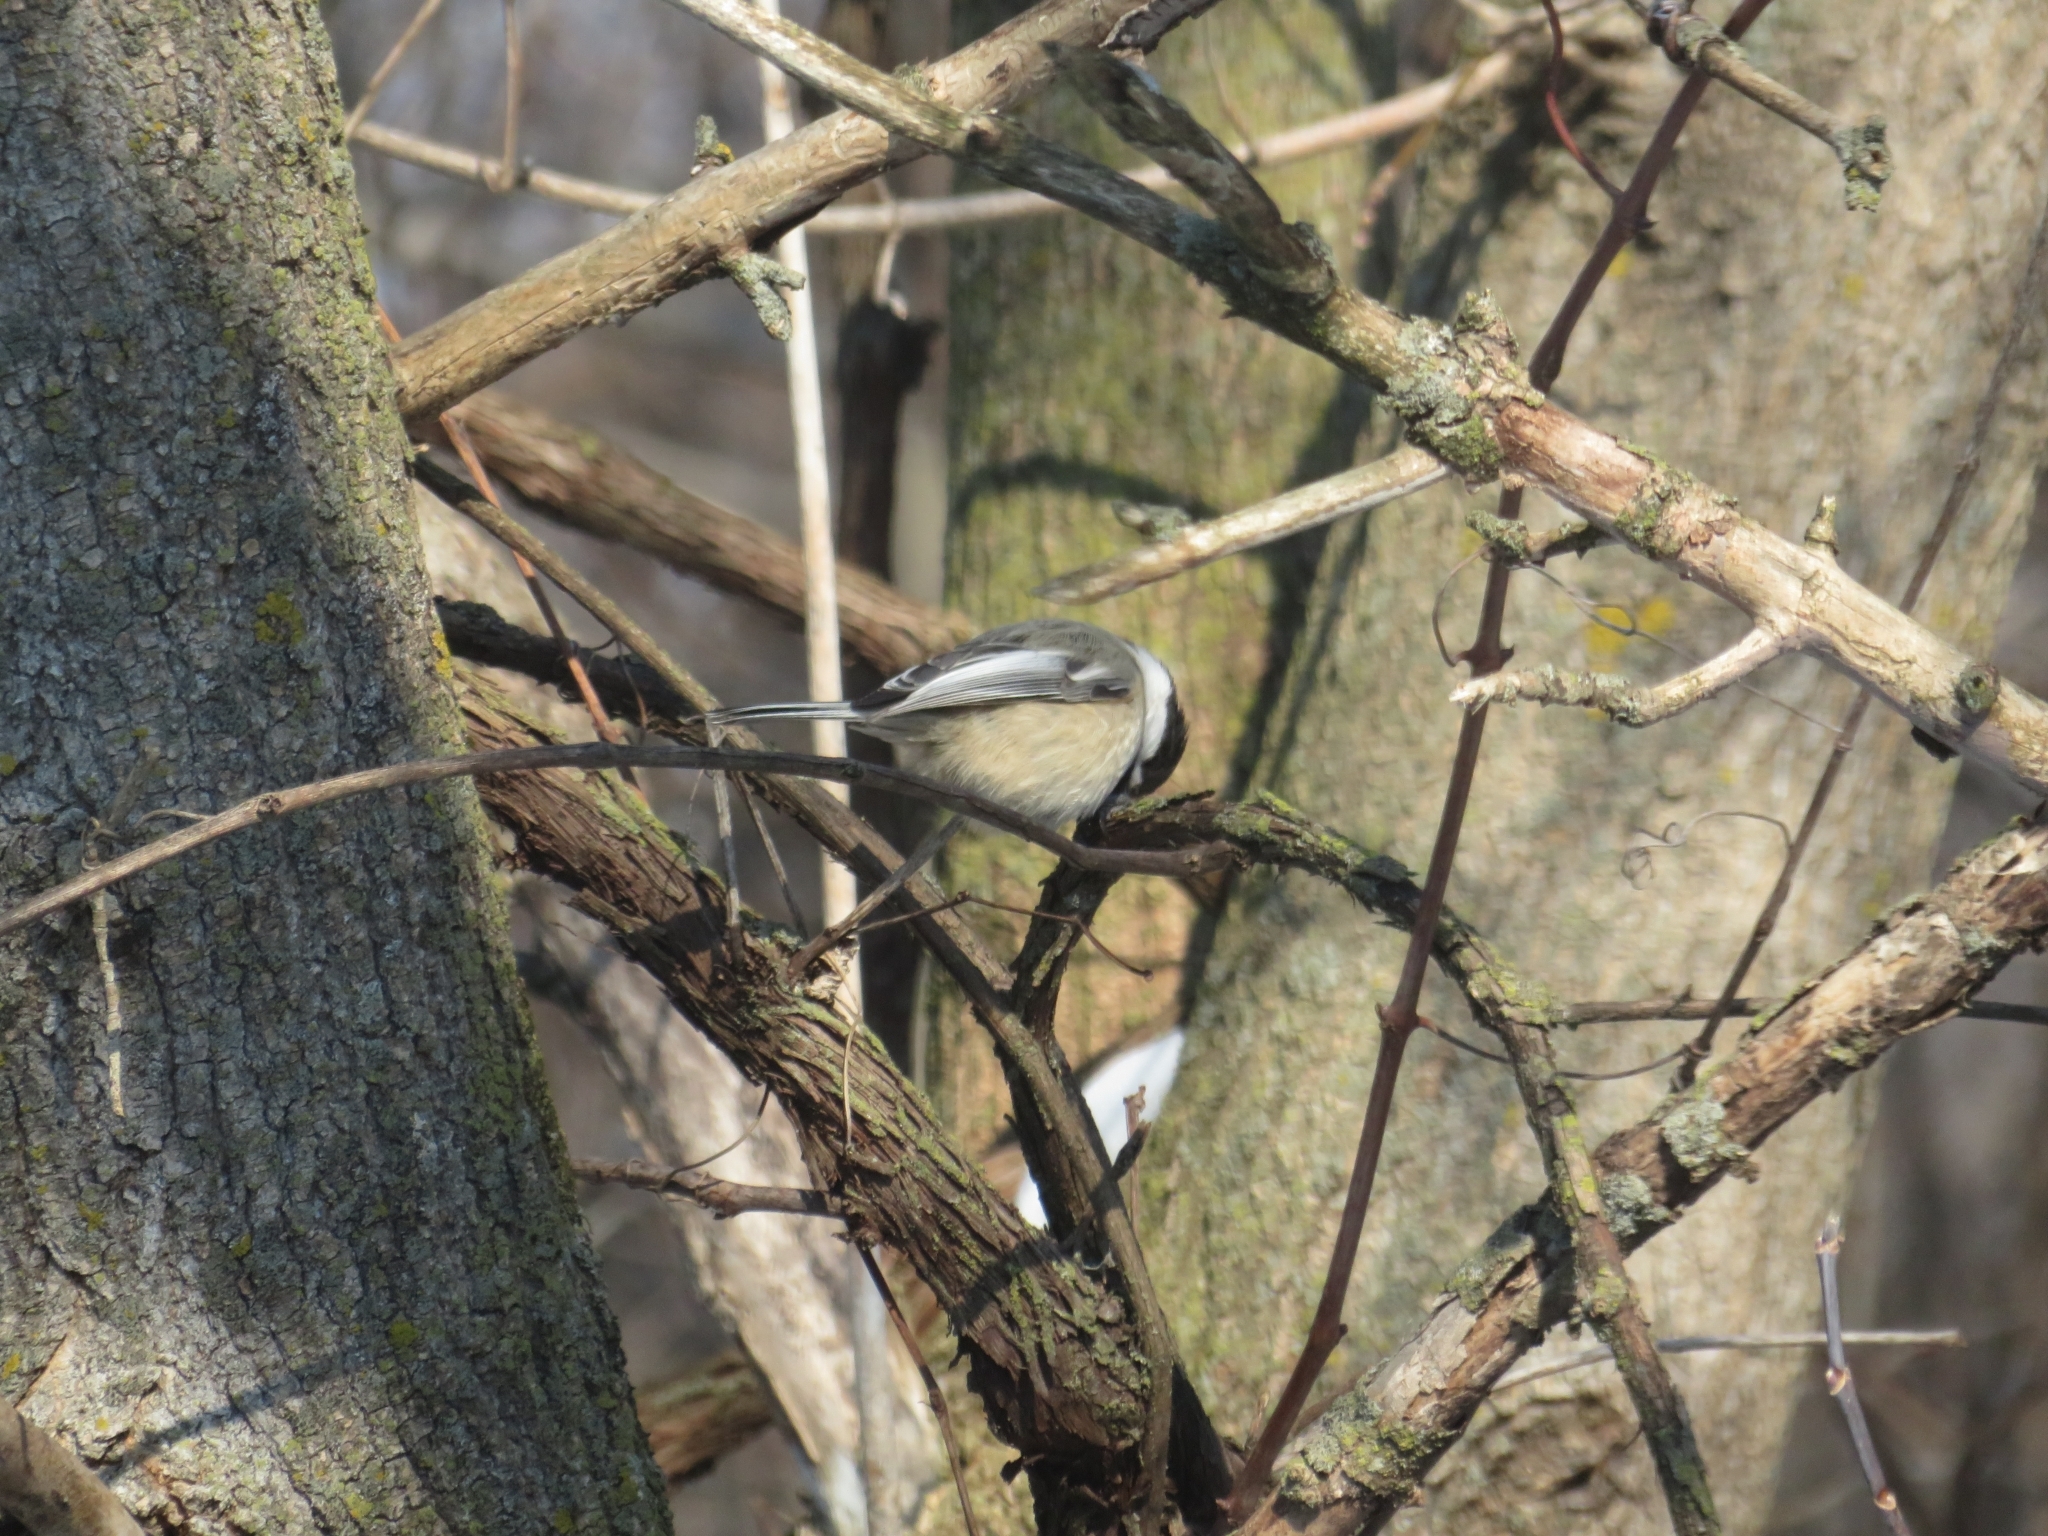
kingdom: Animalia
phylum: Chordata
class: Aves
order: Passeriformes
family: Paridae
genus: Poecile
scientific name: Poecile atricapillus
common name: Black-capped chickadee
